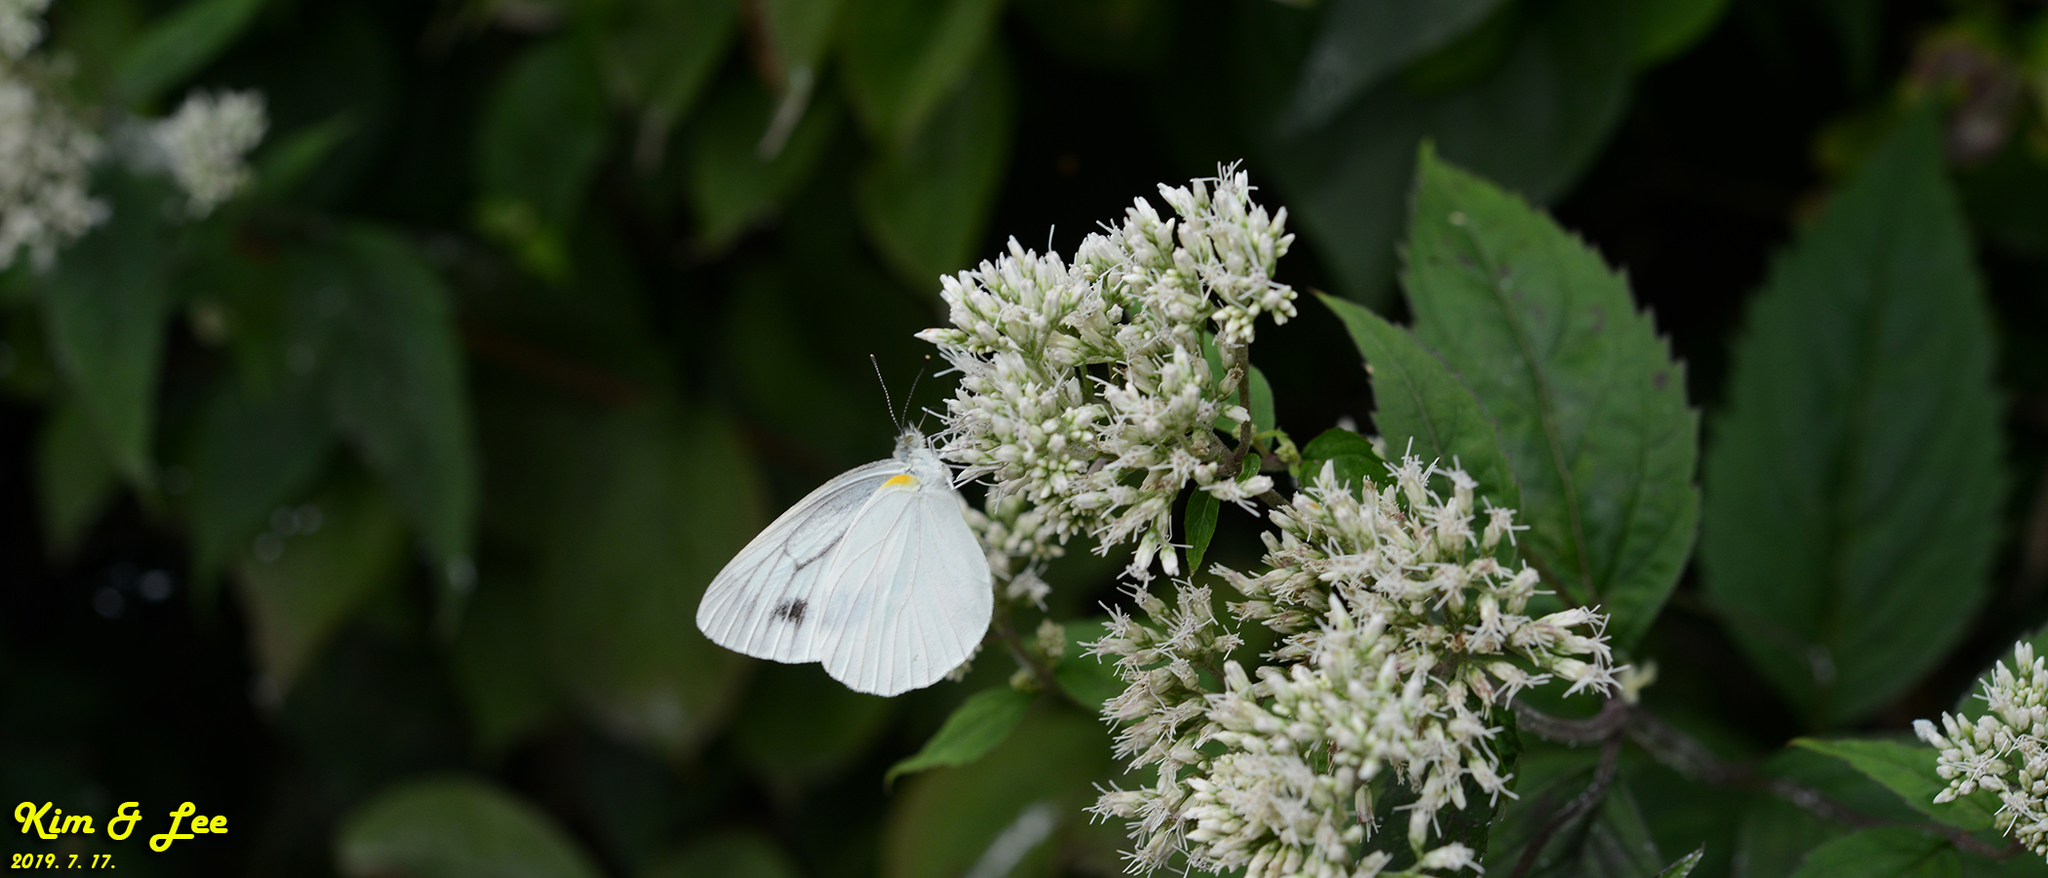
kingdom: Animalia
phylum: Arthropoda
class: Insecta
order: Lepidoptera
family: Pieridae
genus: Pieris
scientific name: Pieris melete
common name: Asian green-veined white
